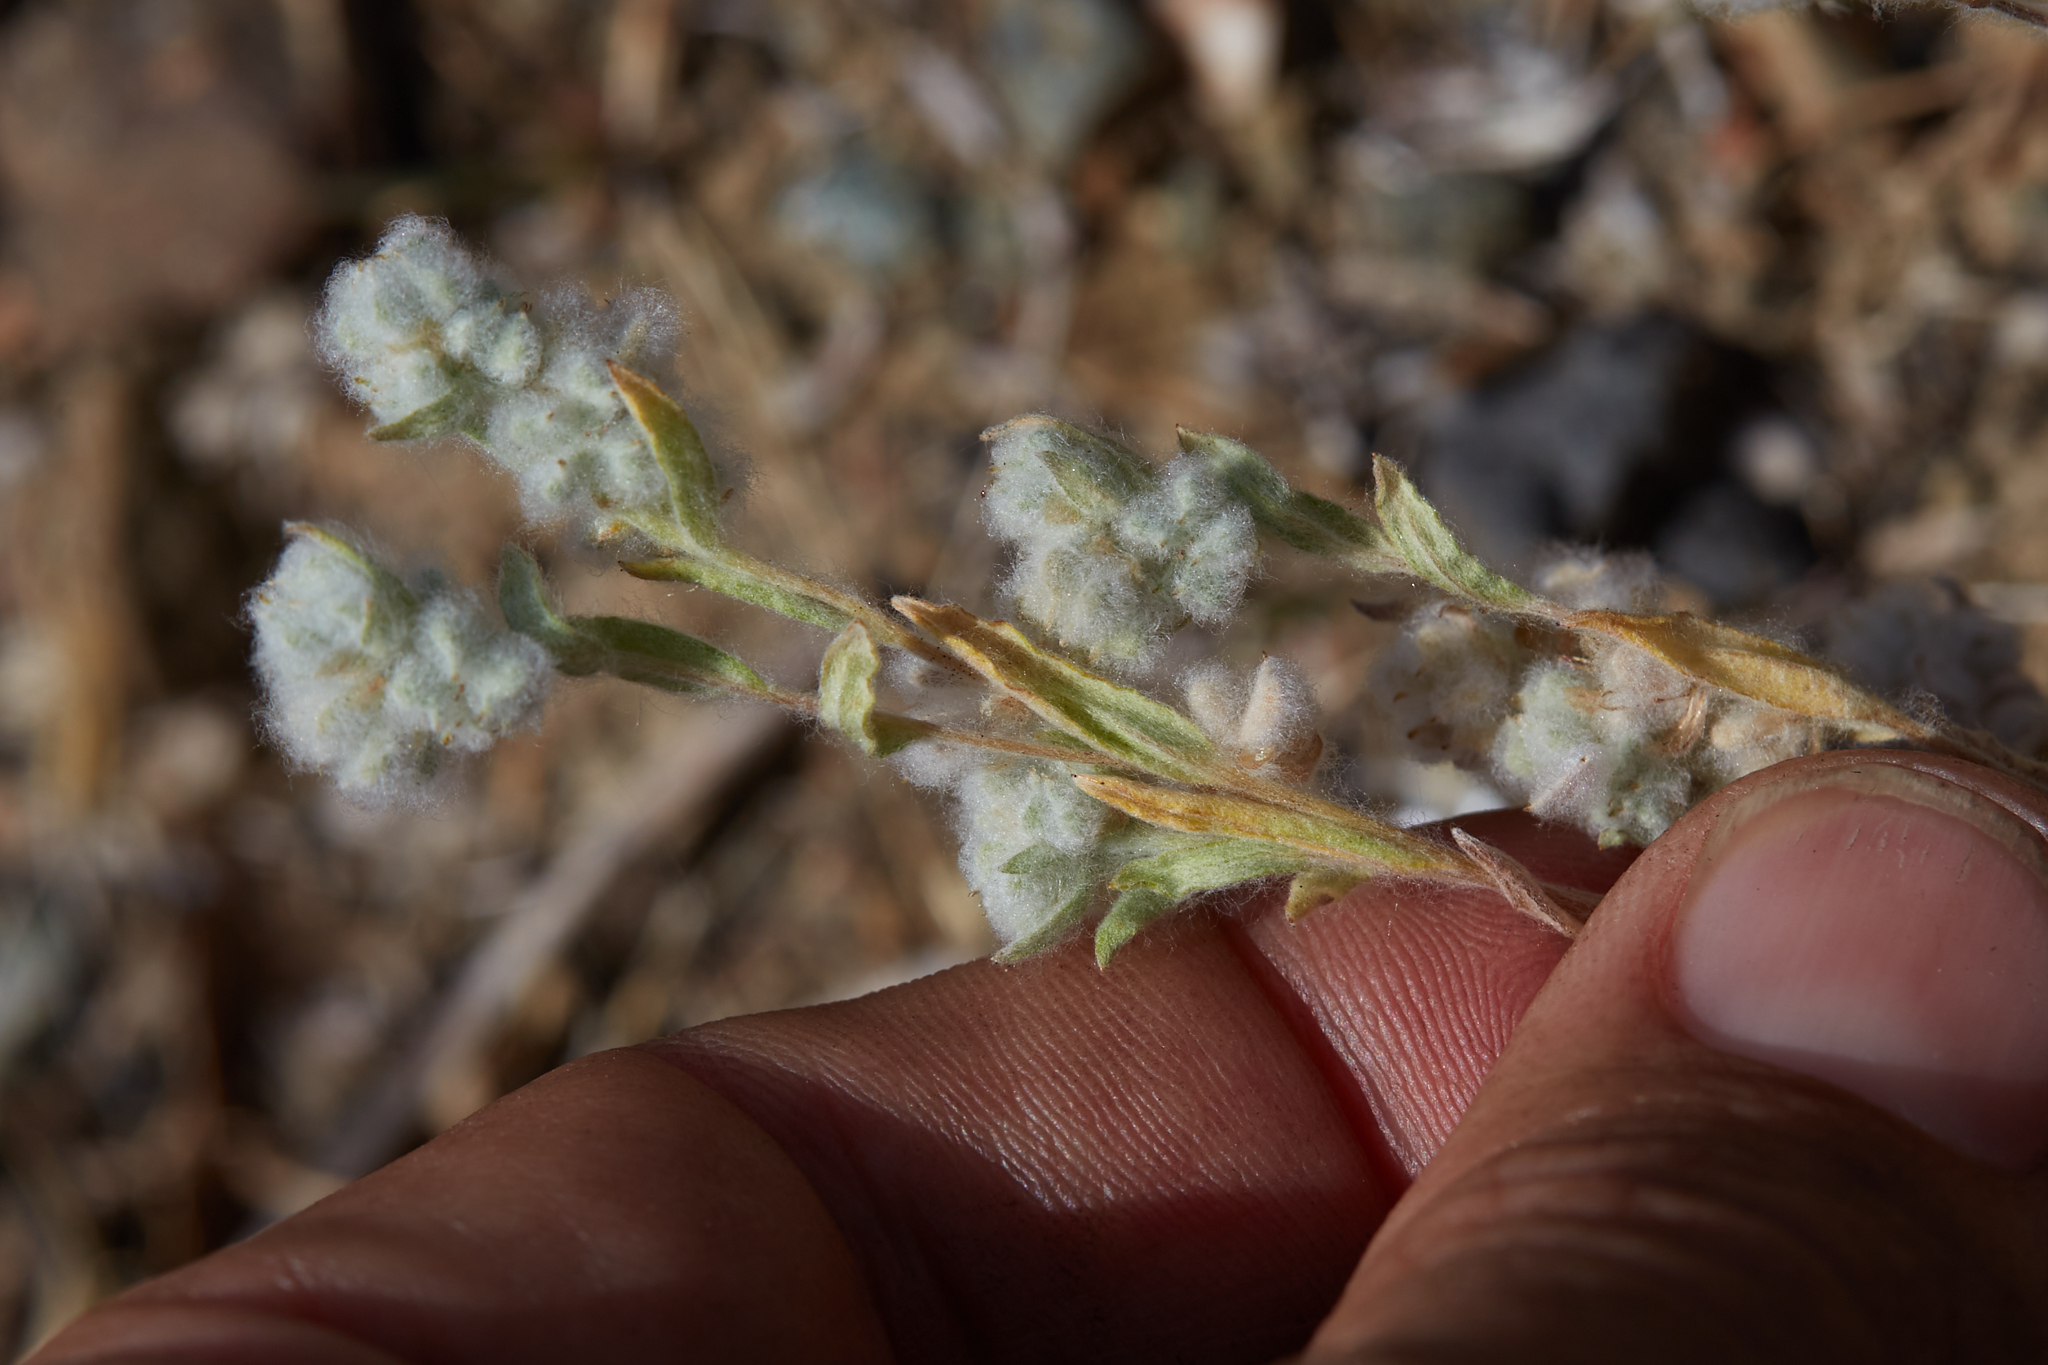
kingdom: Plantae
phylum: Tracheophyta
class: Magnoliopsida
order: Asterales
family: Asteraceae
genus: Bombycilaena
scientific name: Bombycilaena californica
